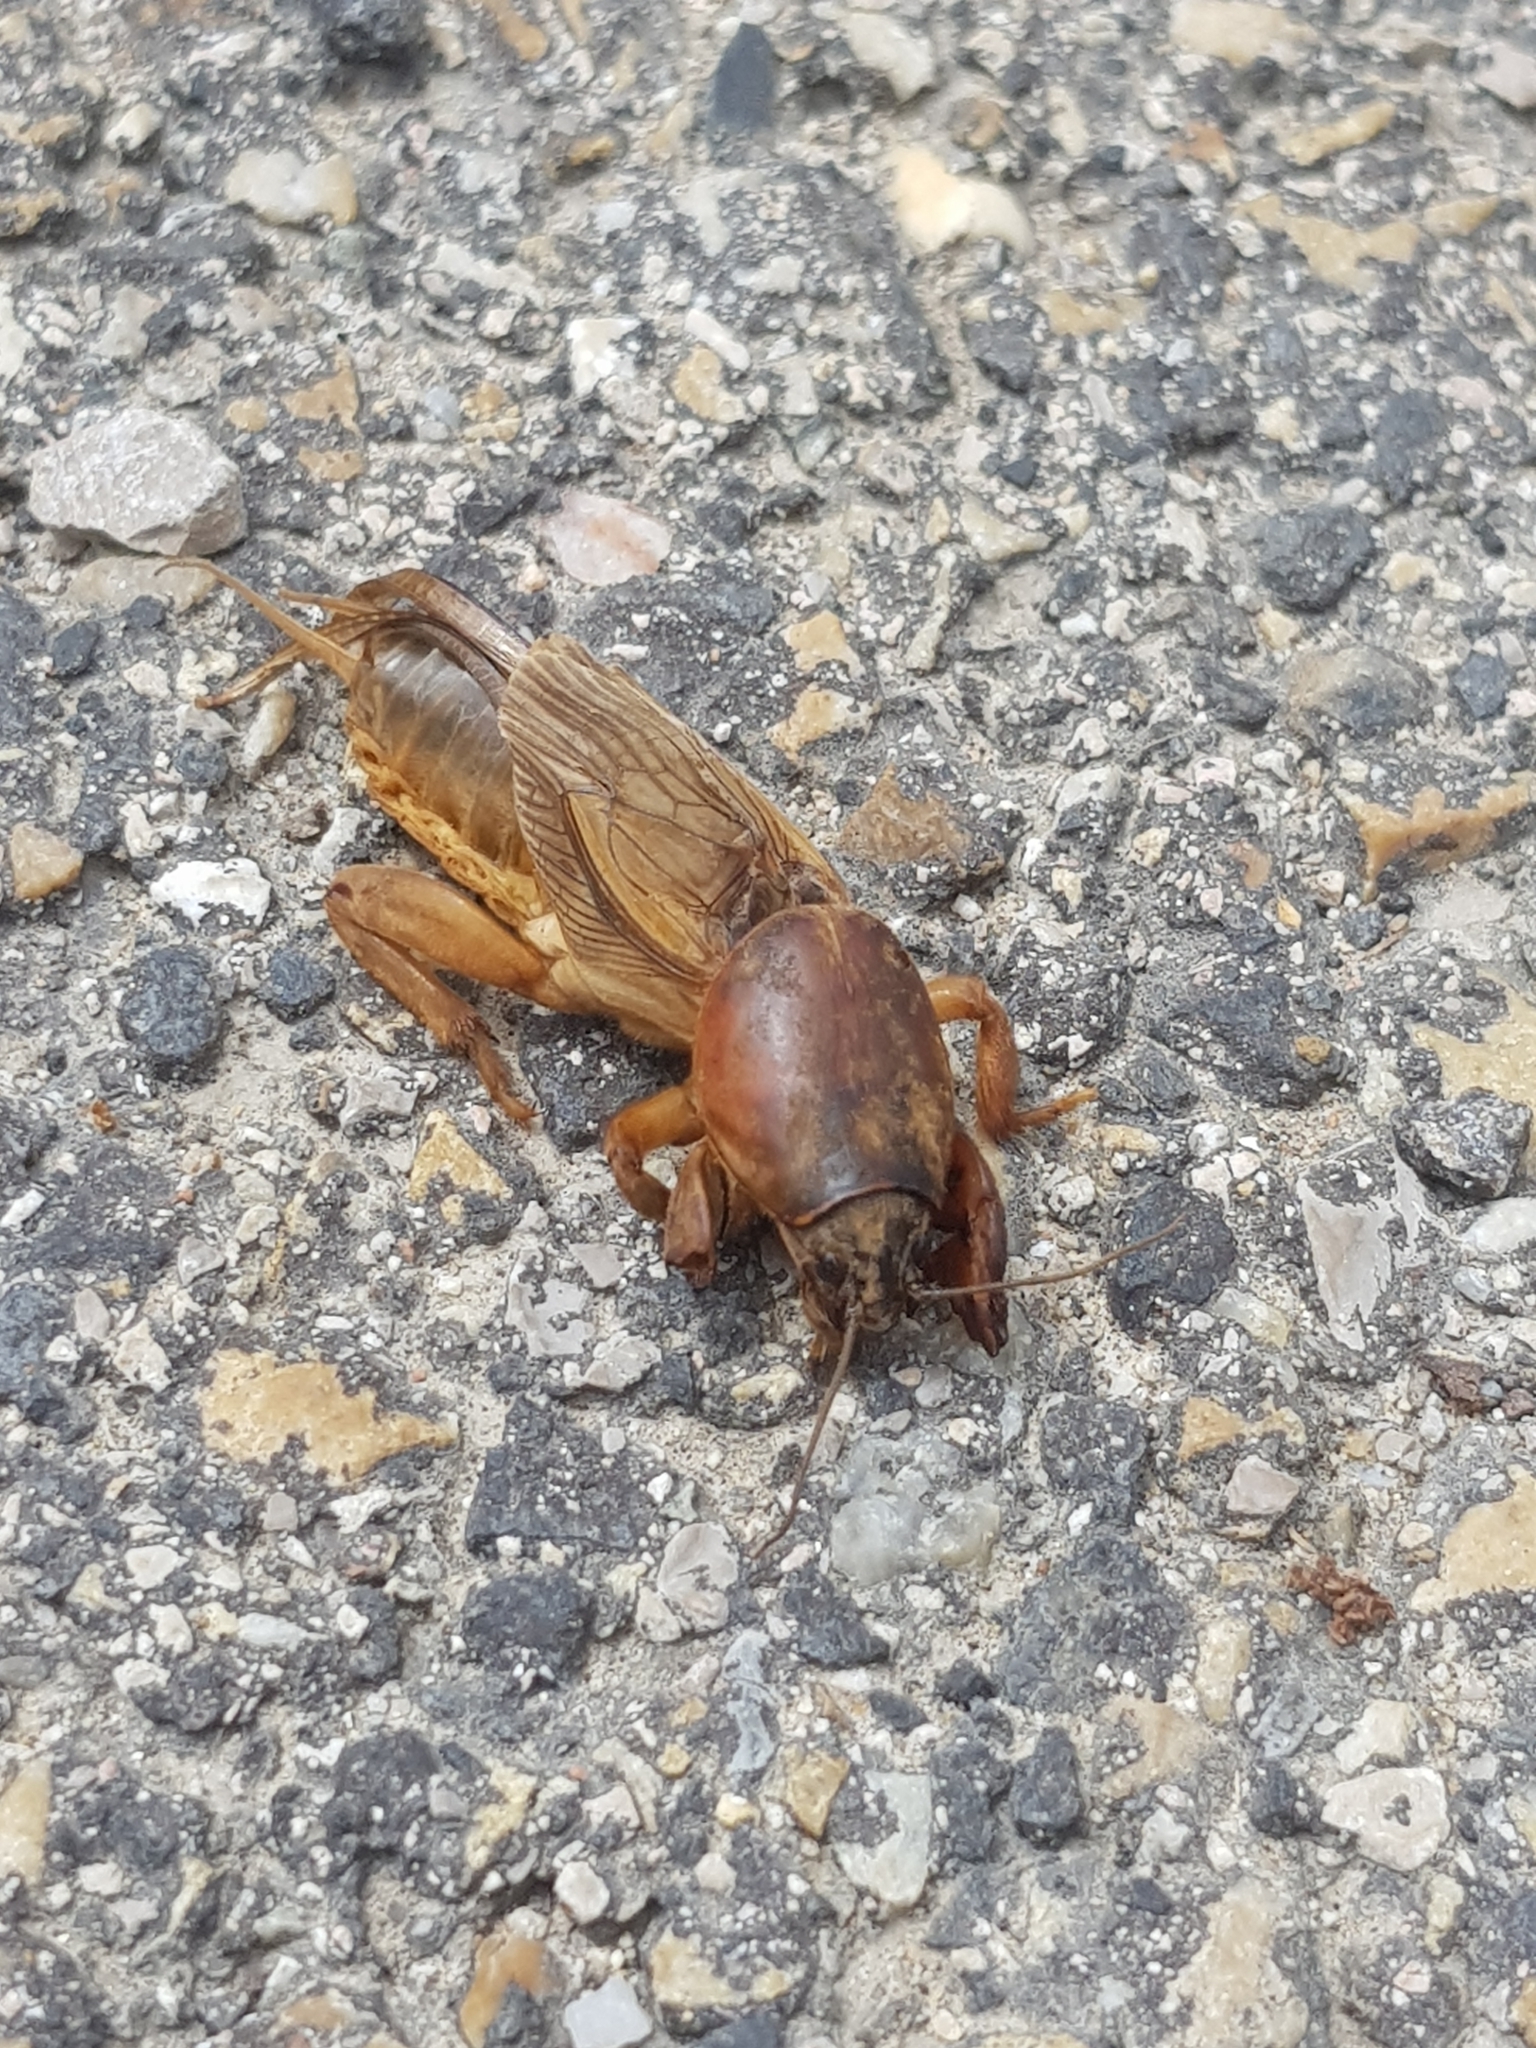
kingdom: Animalia
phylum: Arthropoda
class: Insecta
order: Orthoptera
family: Gryllotalpidae
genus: Gryllotalpa
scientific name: Gryllotalpa vineae
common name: Vineyard mole-cricket
